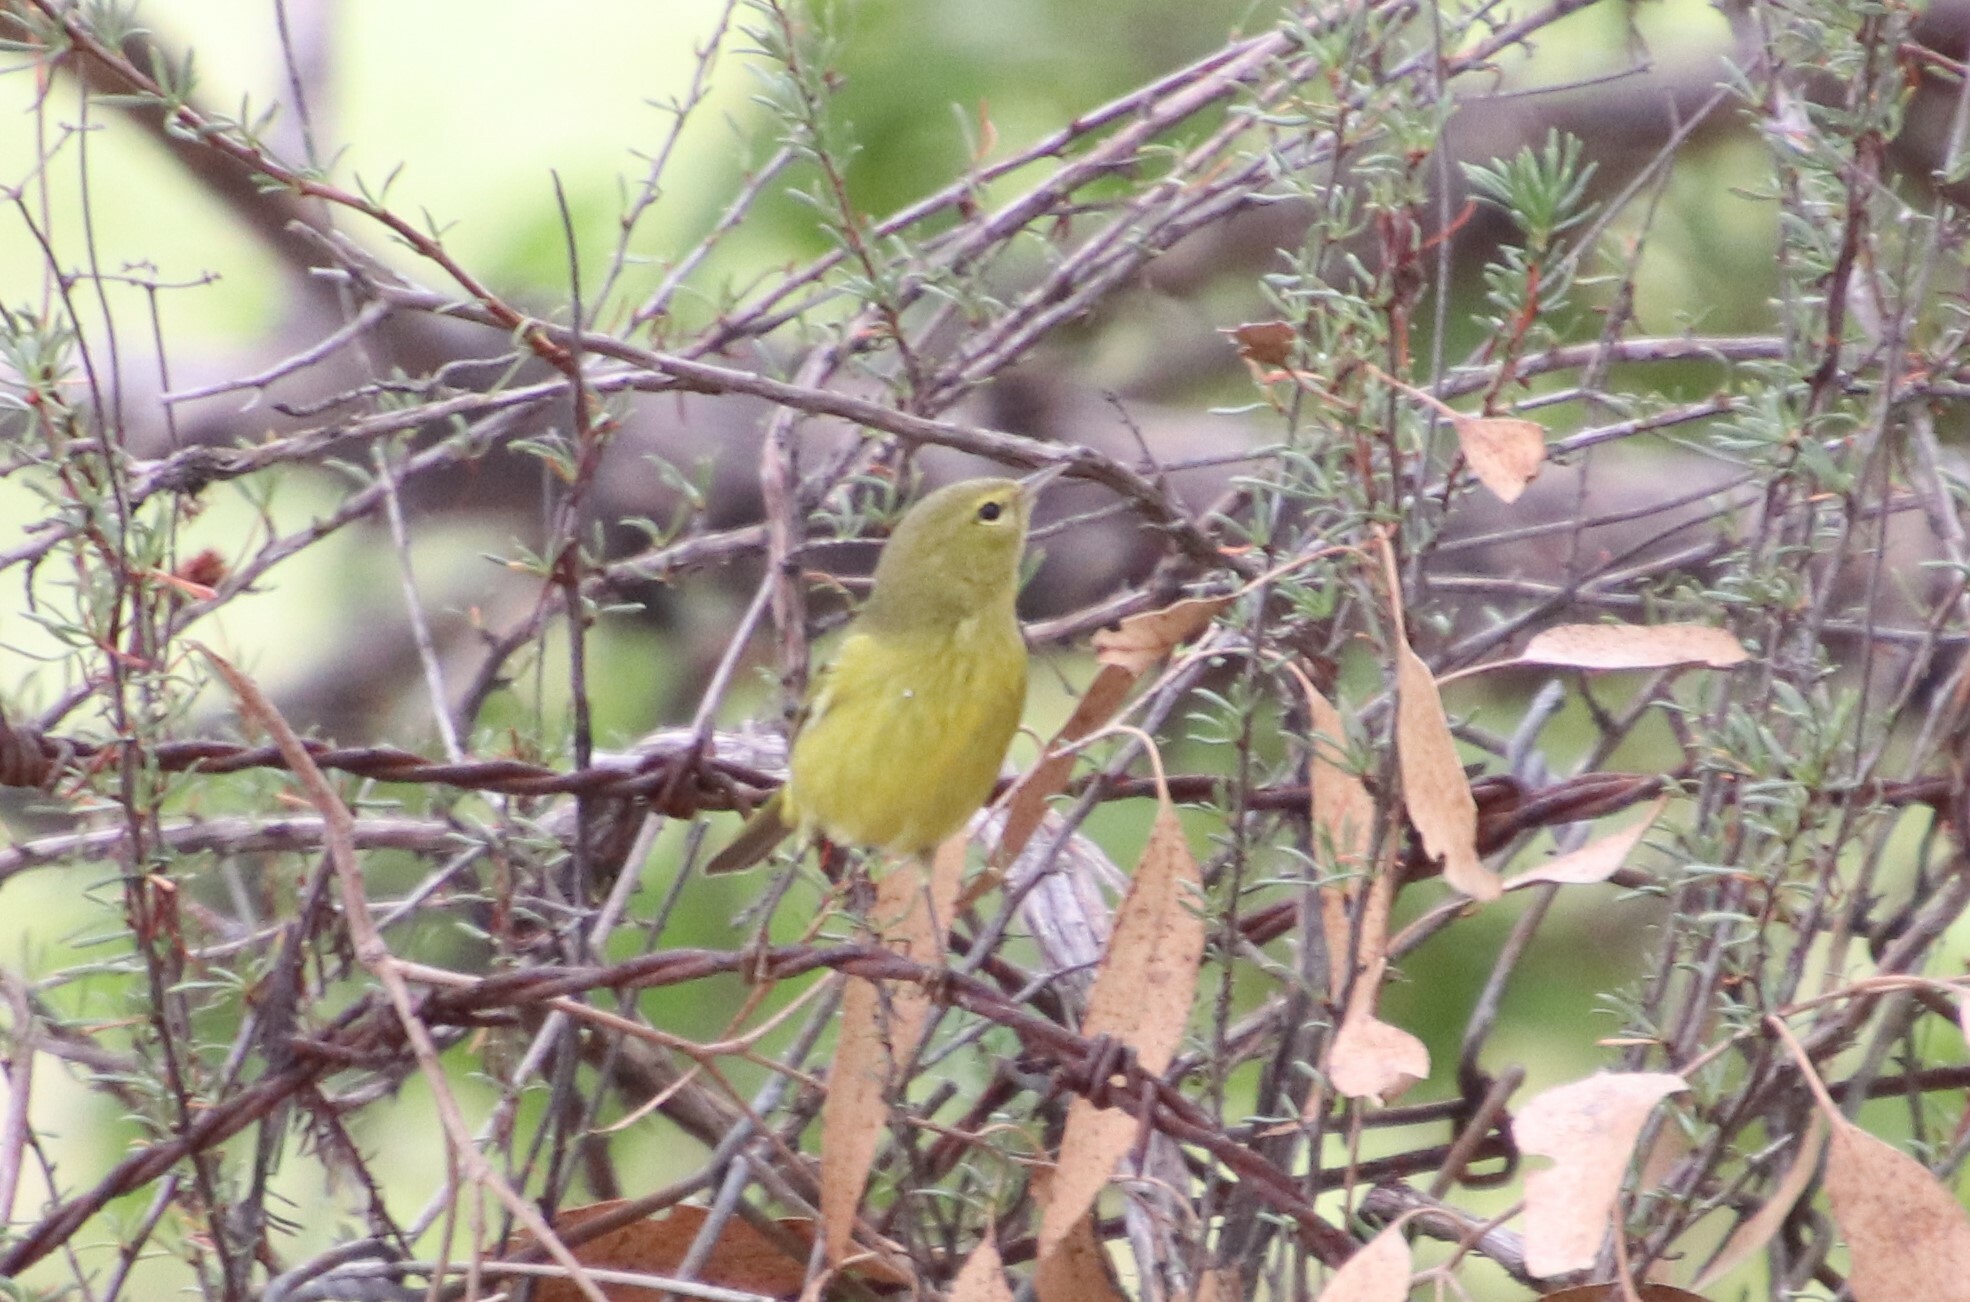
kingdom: Animalia
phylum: Chordata
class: Aves
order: Passeriformes
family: Parulidae
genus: Leiothlypis
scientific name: Leiothlypis celata
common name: Orange-crowned warbler
